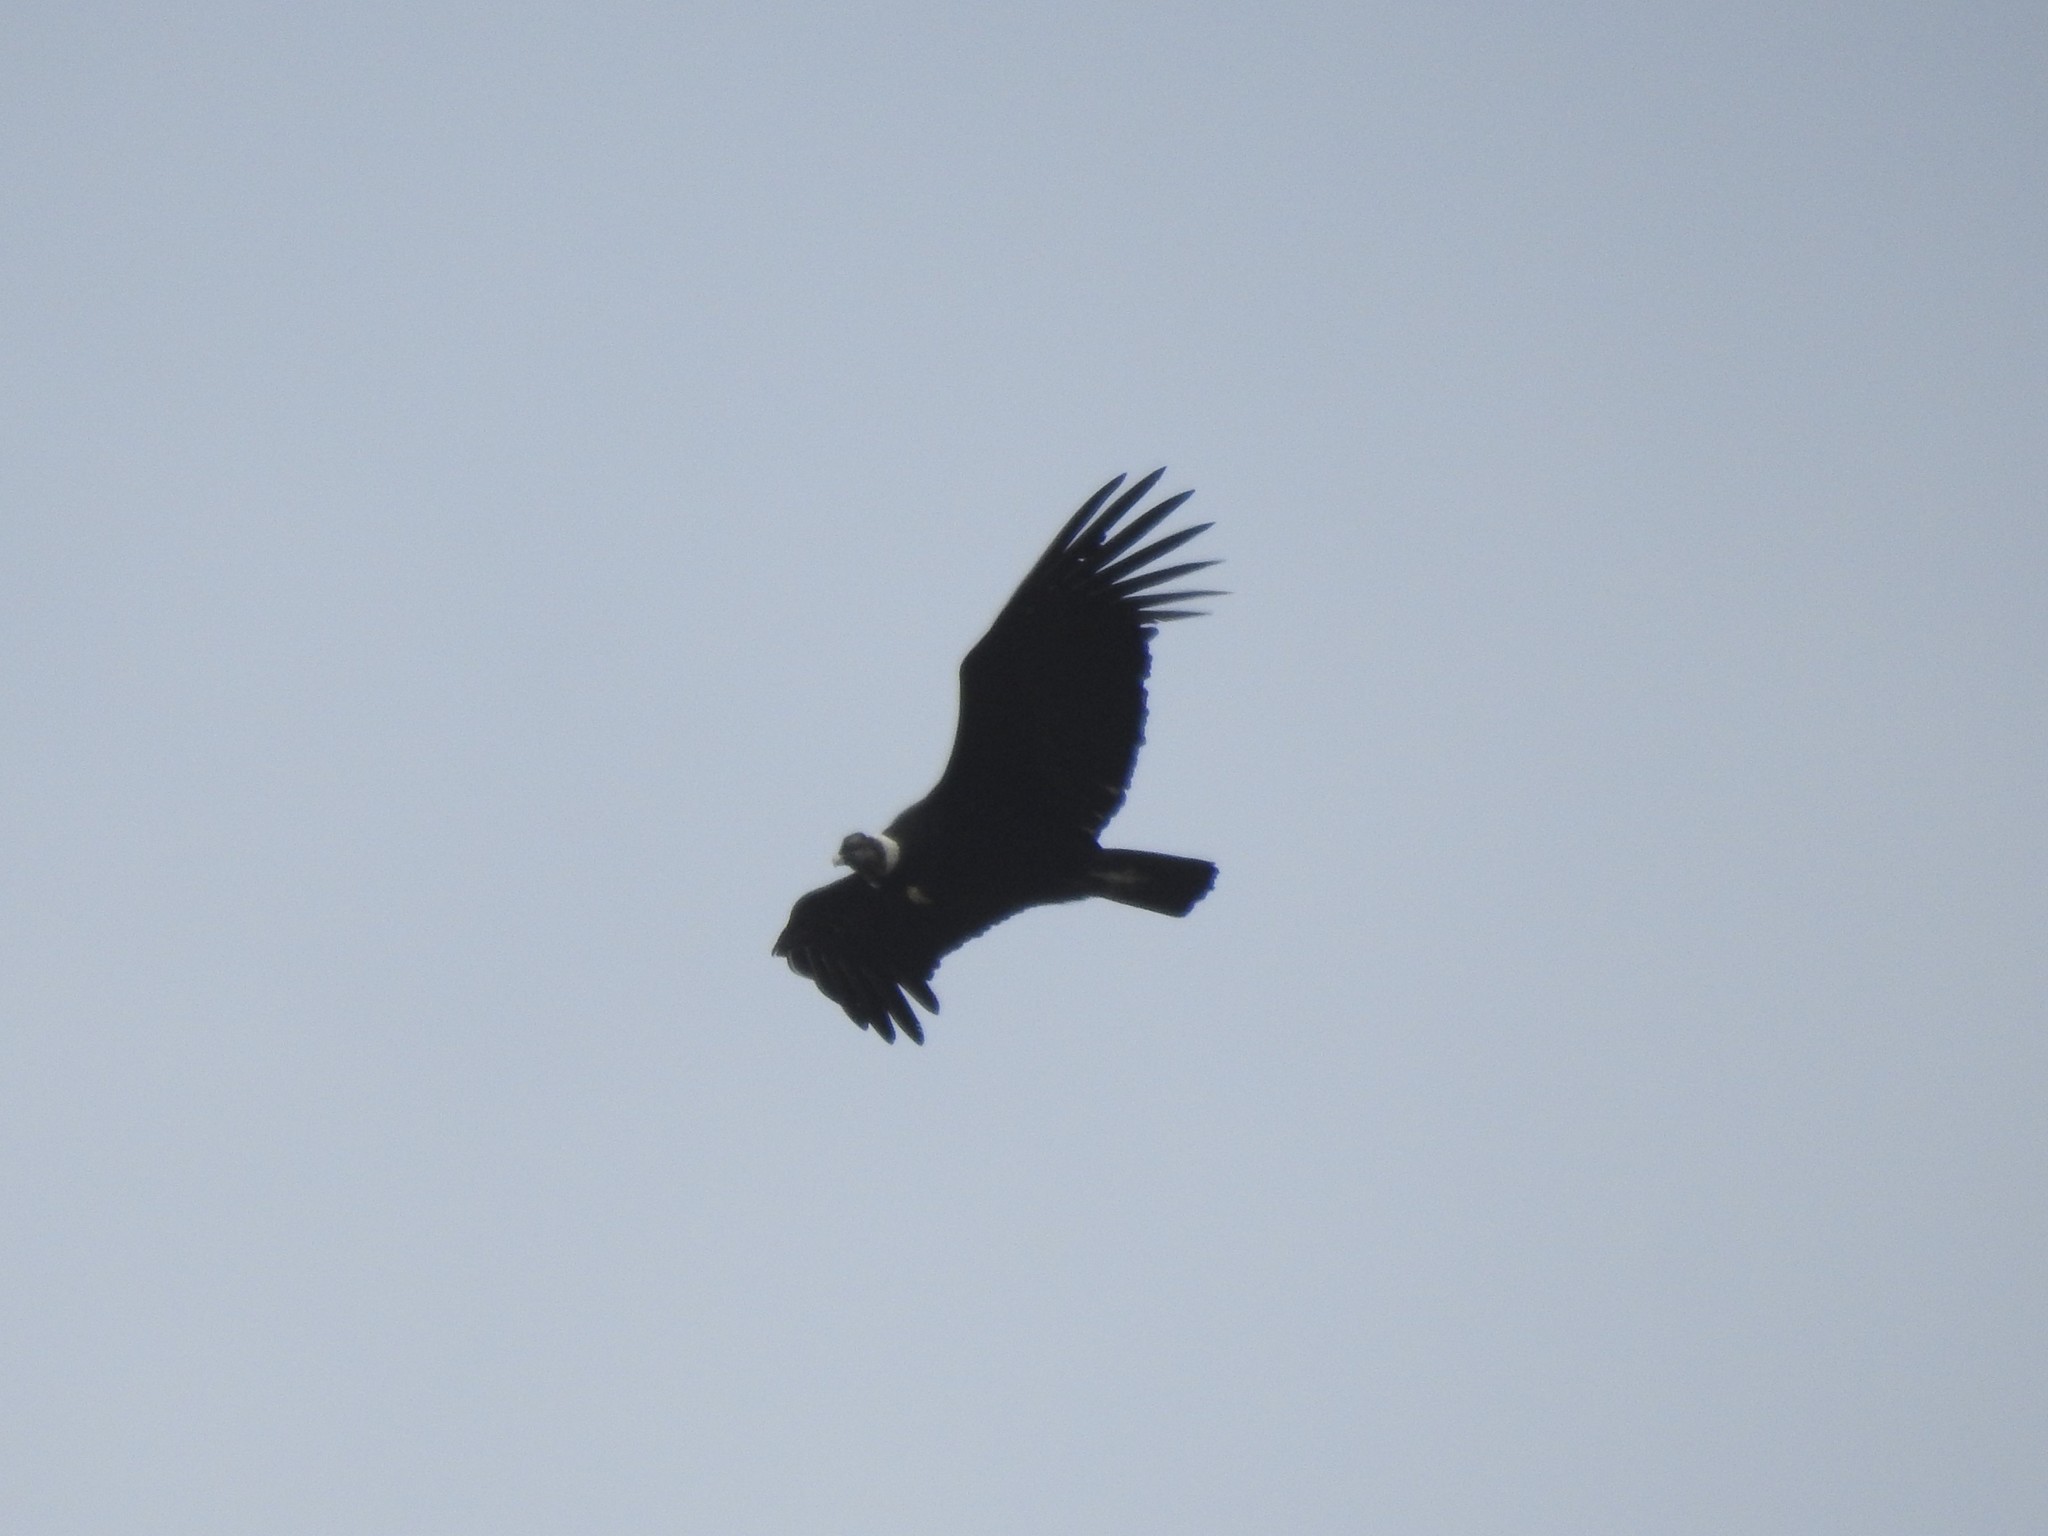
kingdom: Animalia
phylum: Chordata
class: Aves
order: Accipitriformes
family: Cathartidae
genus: Vultur
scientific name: Vultur gryphus
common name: Andean condor
